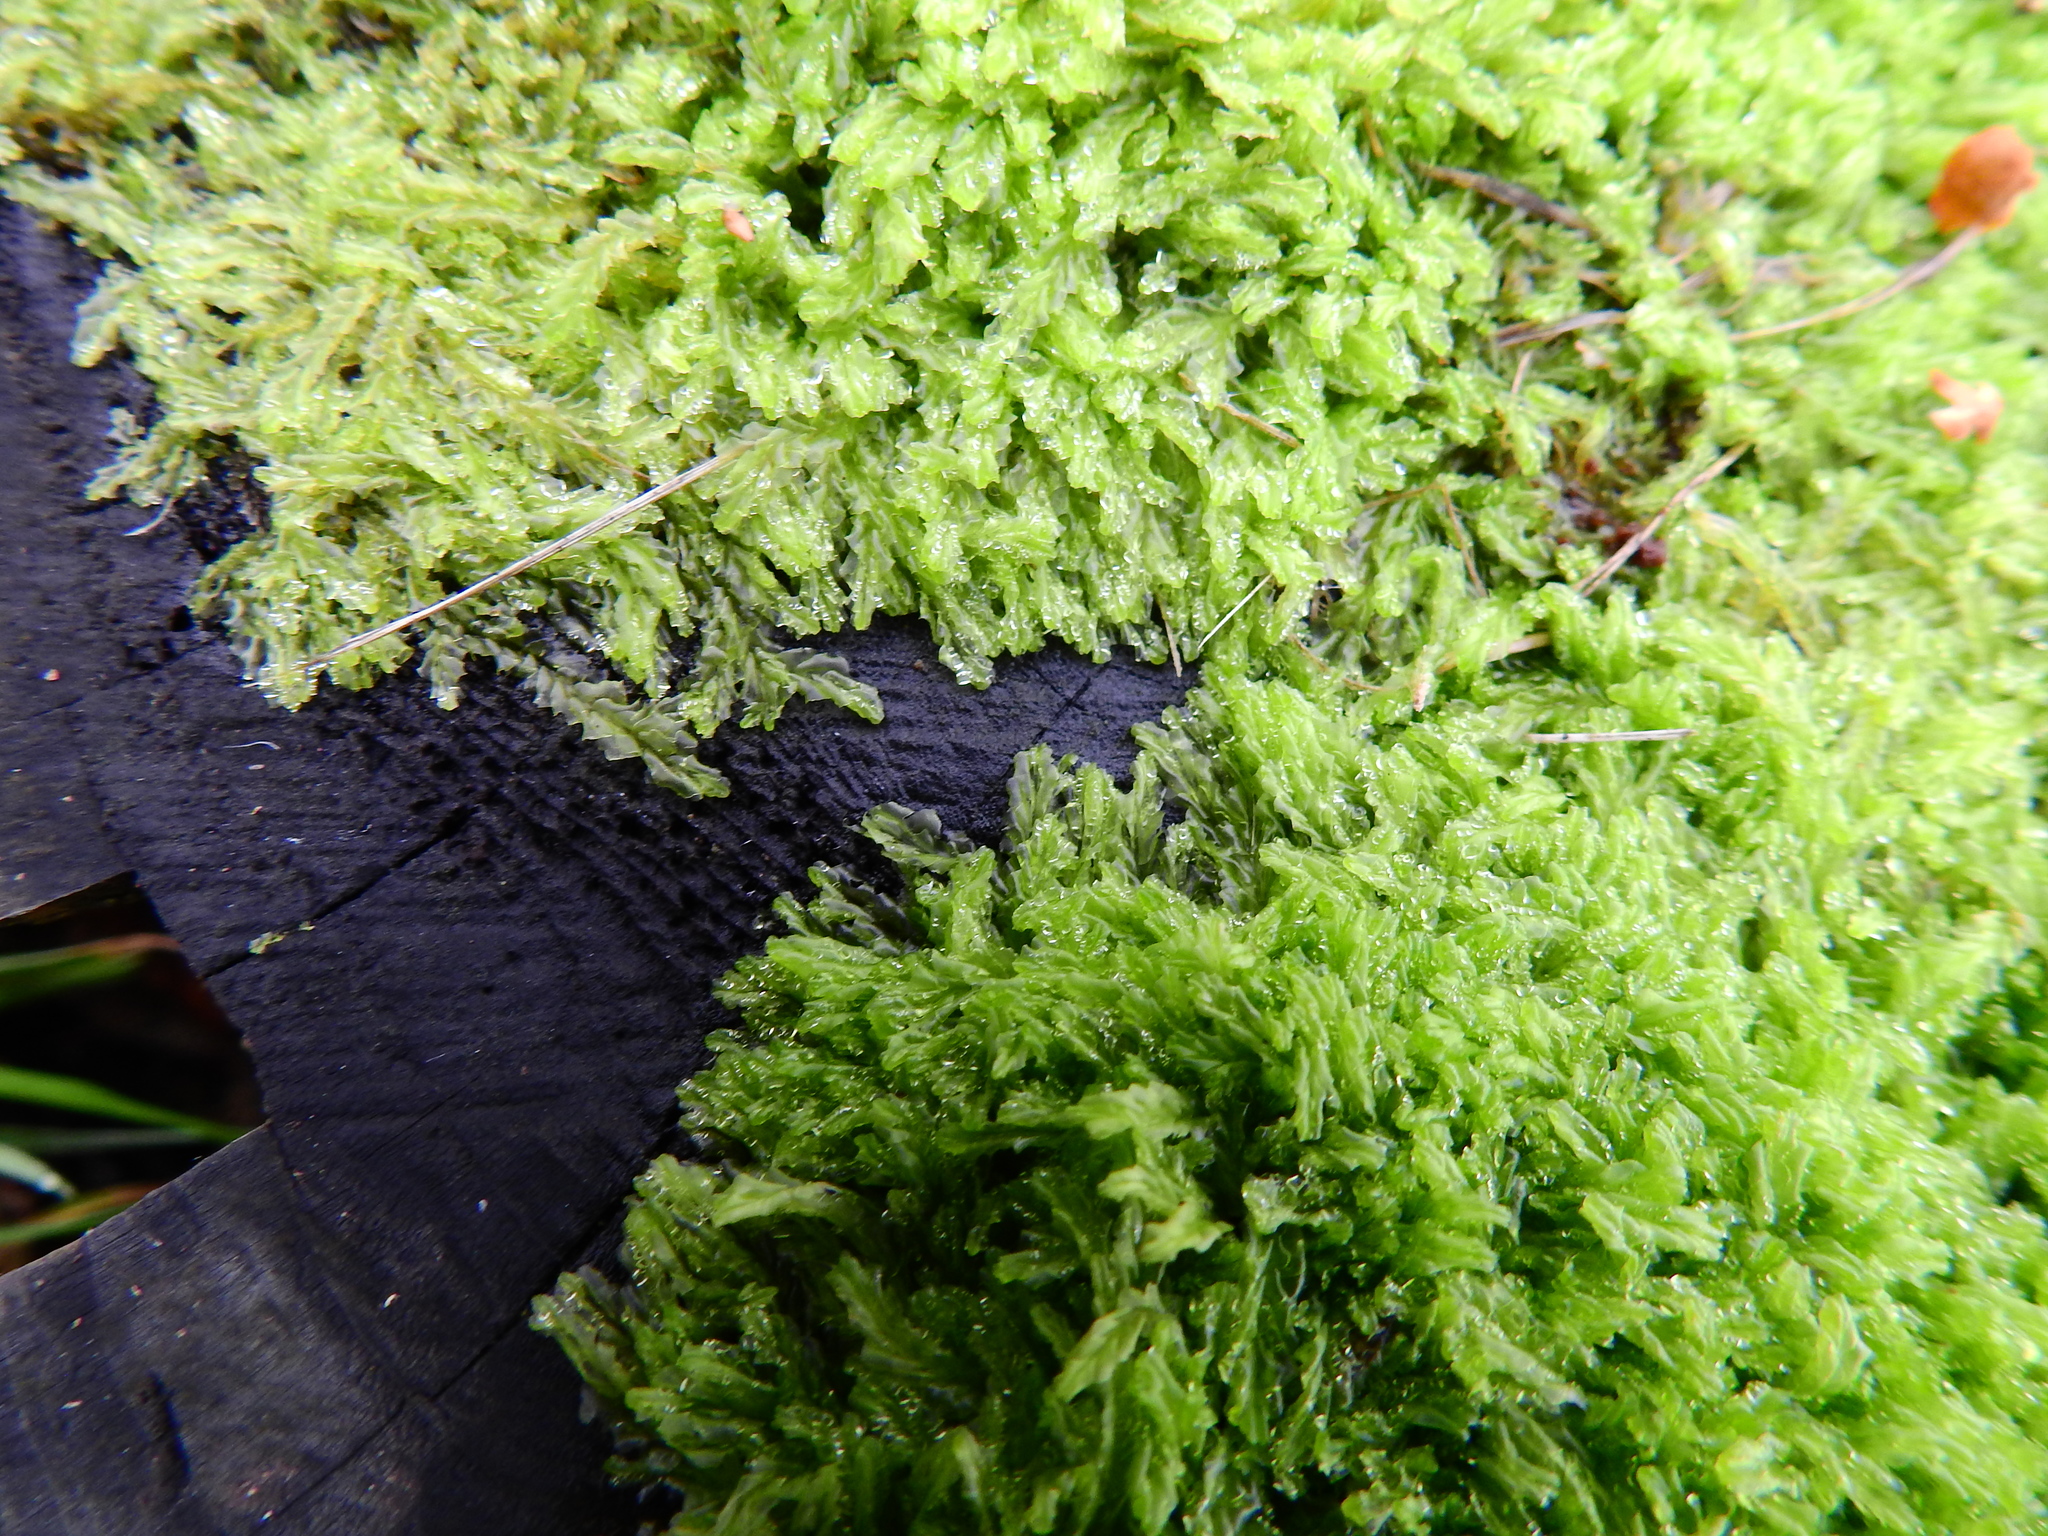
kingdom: Plantae
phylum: Marchantiophyta
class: Jungermanniopsida
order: Jungermanniales
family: Lophocoleaceae
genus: Lophocolea
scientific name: Lophocolea semiteres
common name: Southern crestwort
